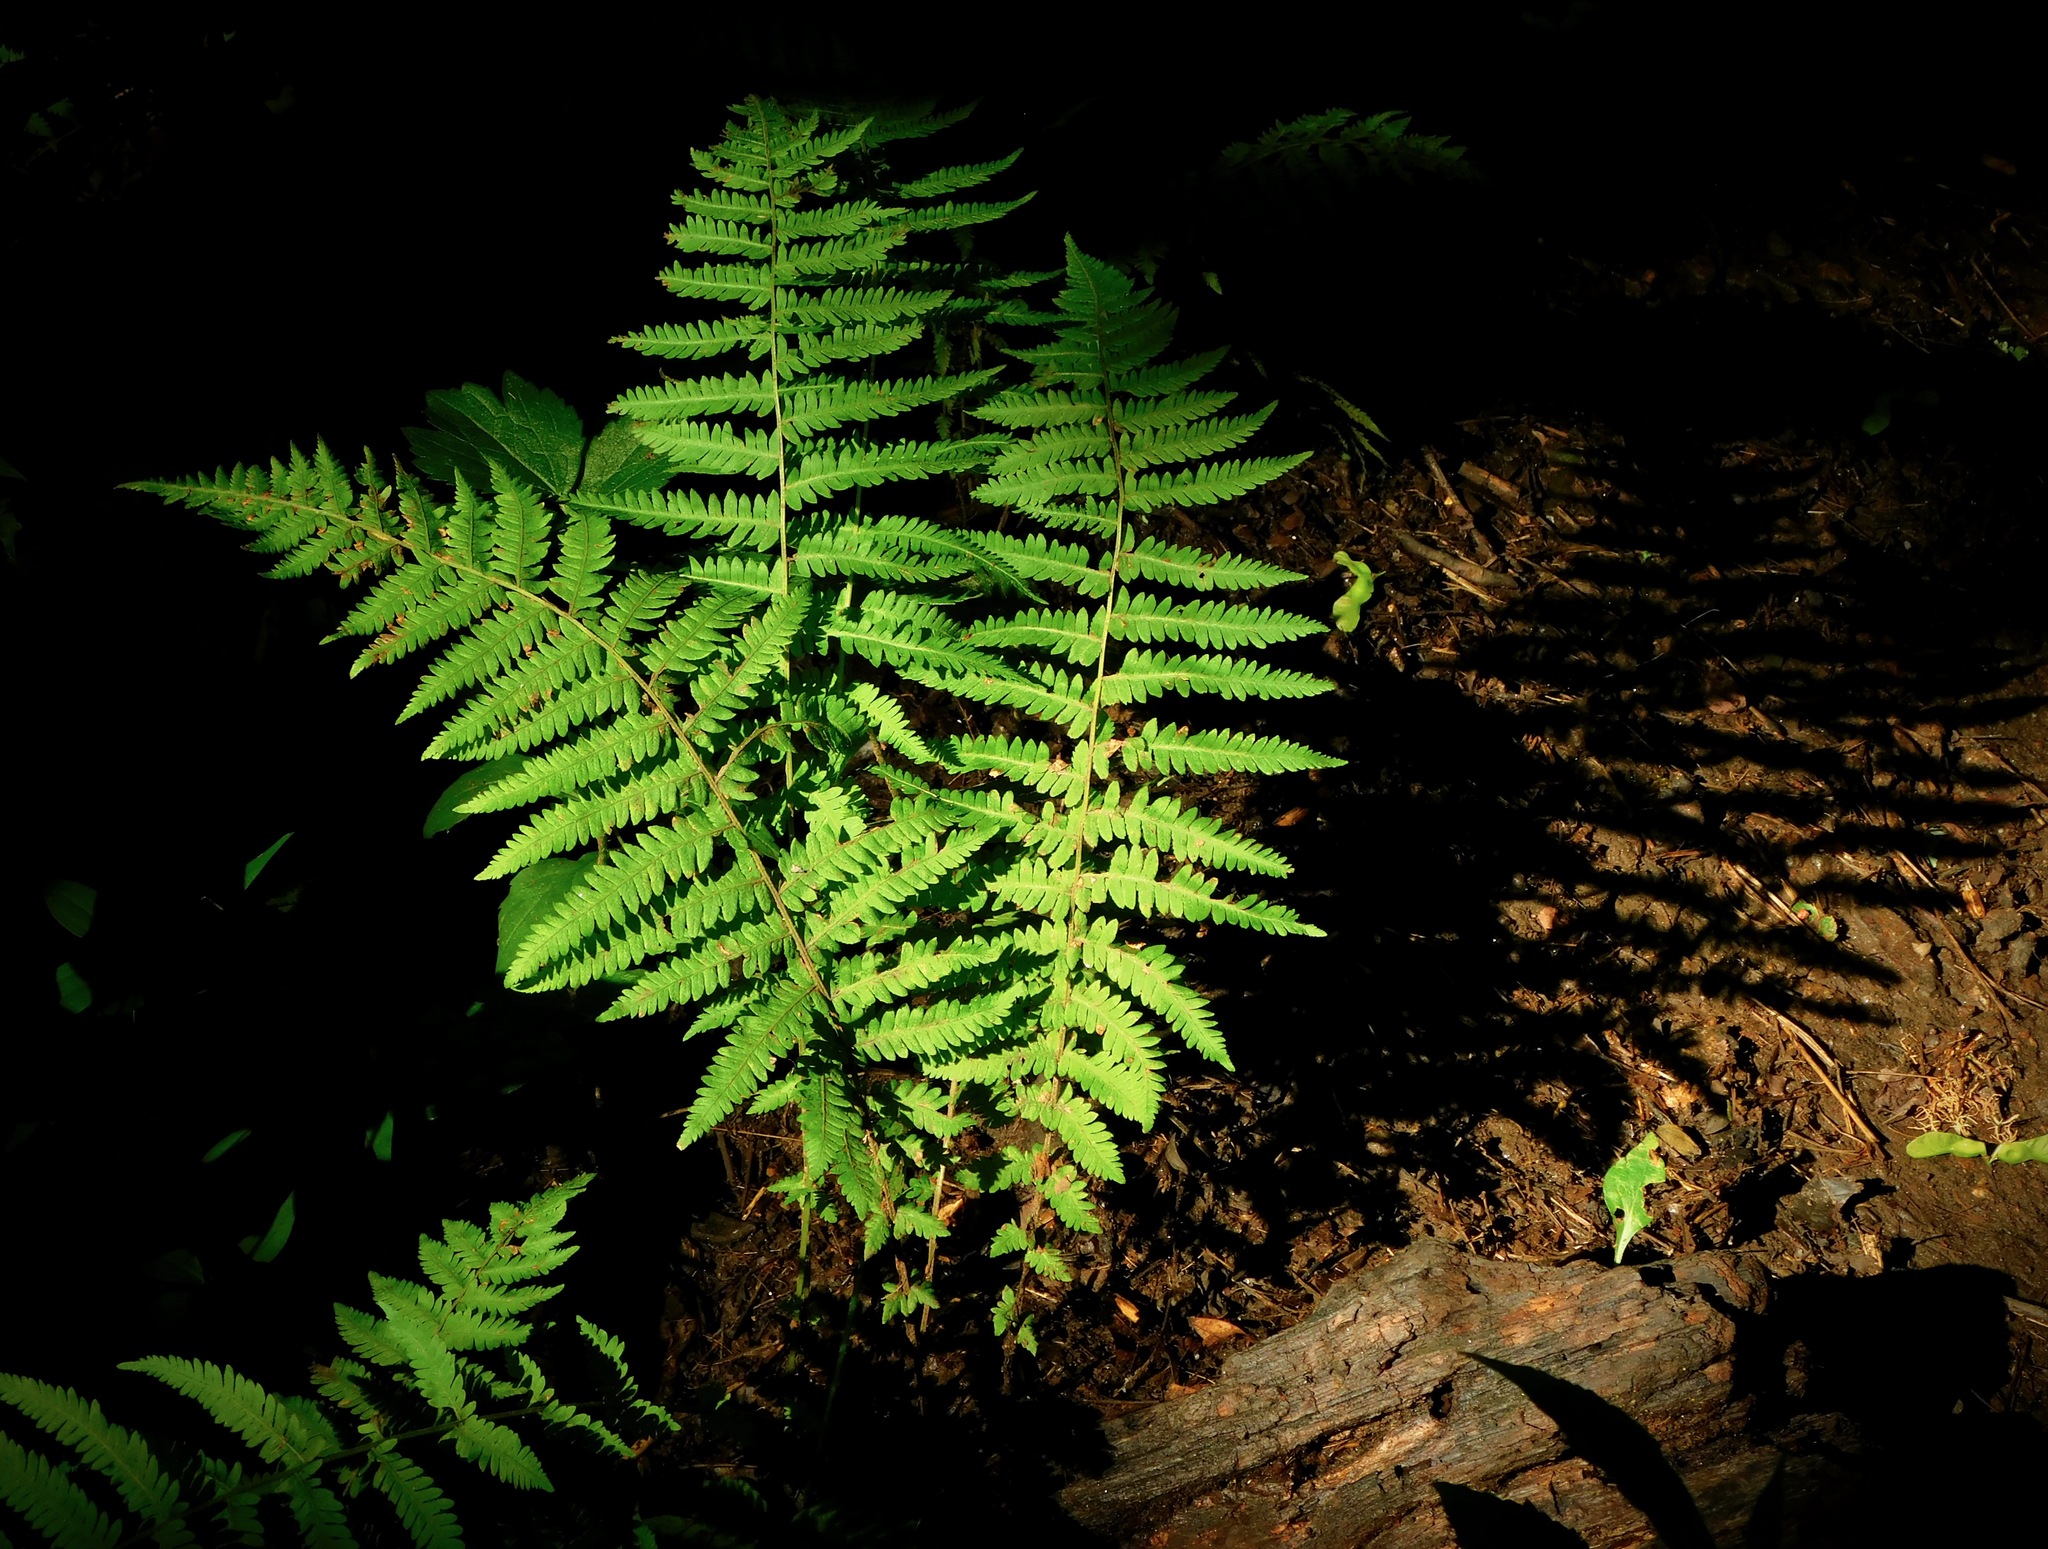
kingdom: Plantae
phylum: Tracheophyta
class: Polypodiopsida
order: Polypodiales
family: Thelypteridaceae
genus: Amauropelta
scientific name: Amauropelta noveboracensis
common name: New york fern
